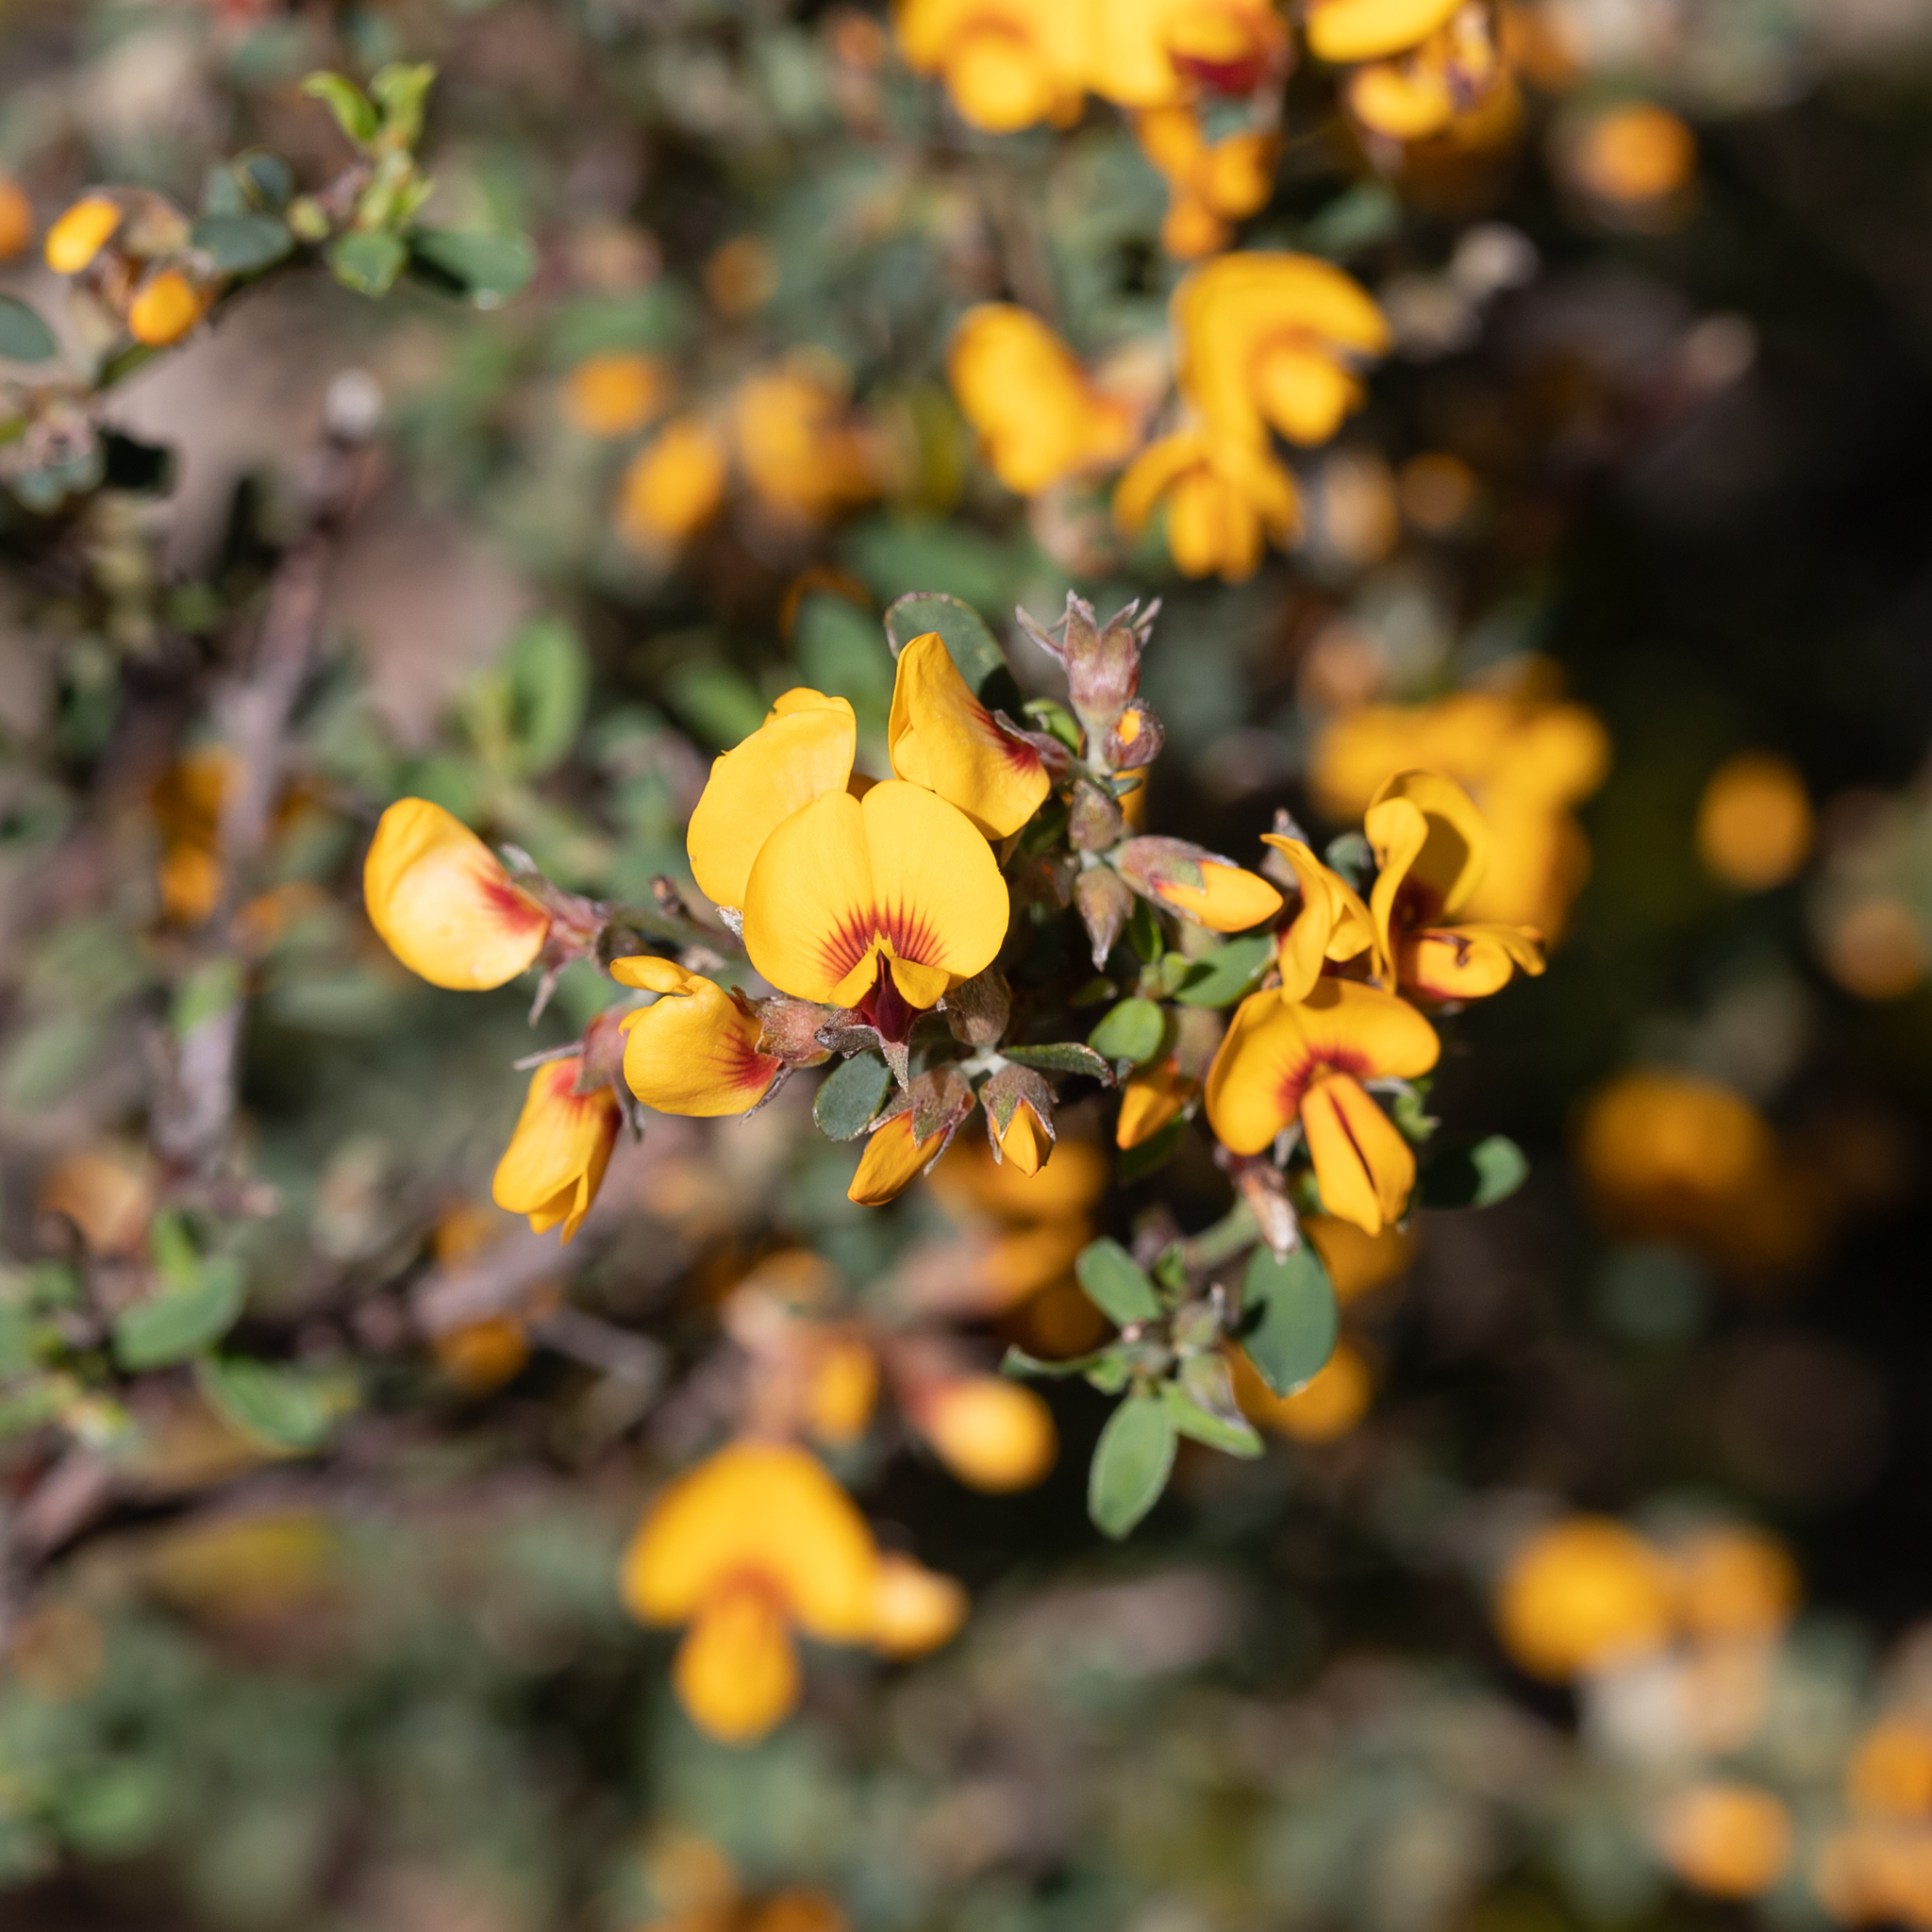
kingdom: Plantae
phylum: Tracheophyta
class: Magnoliopsida
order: Fabales
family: Fabaceae
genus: Pultenaea
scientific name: Pultenaea largiflorens
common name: Twiggy bush-pea
